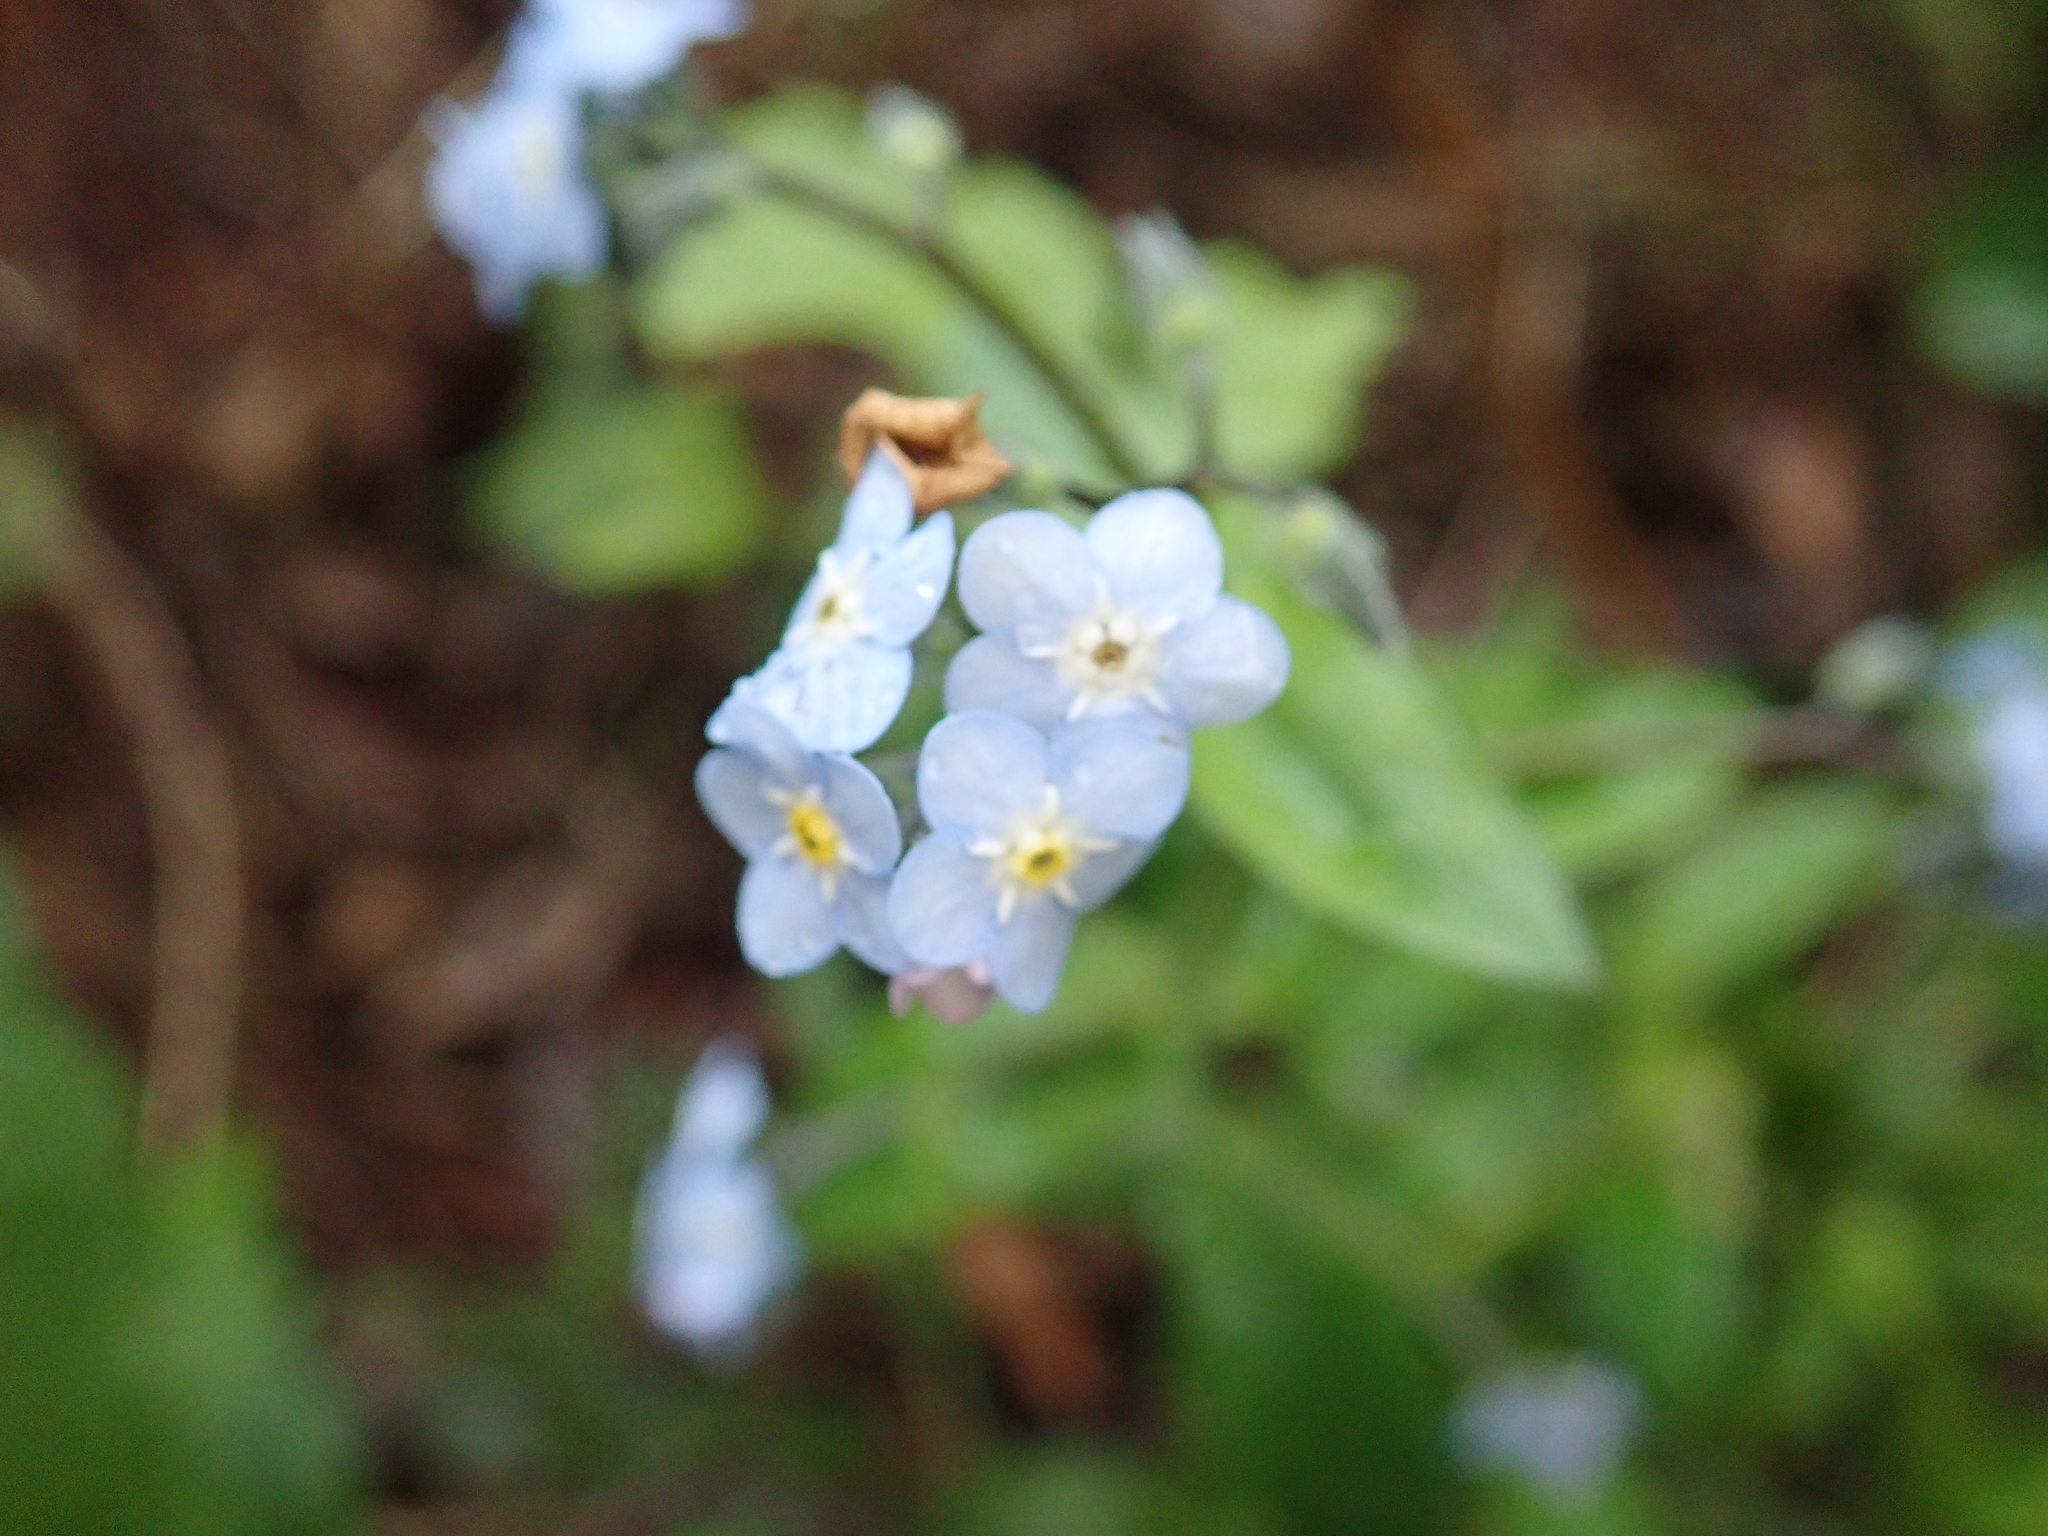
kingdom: Plantae
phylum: Tracheophyta
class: Magnoliopsida
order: Boraginales
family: Boraginaceae
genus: Myosotis
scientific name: Myosotis latifolia
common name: Broadleaf forget-me-not
